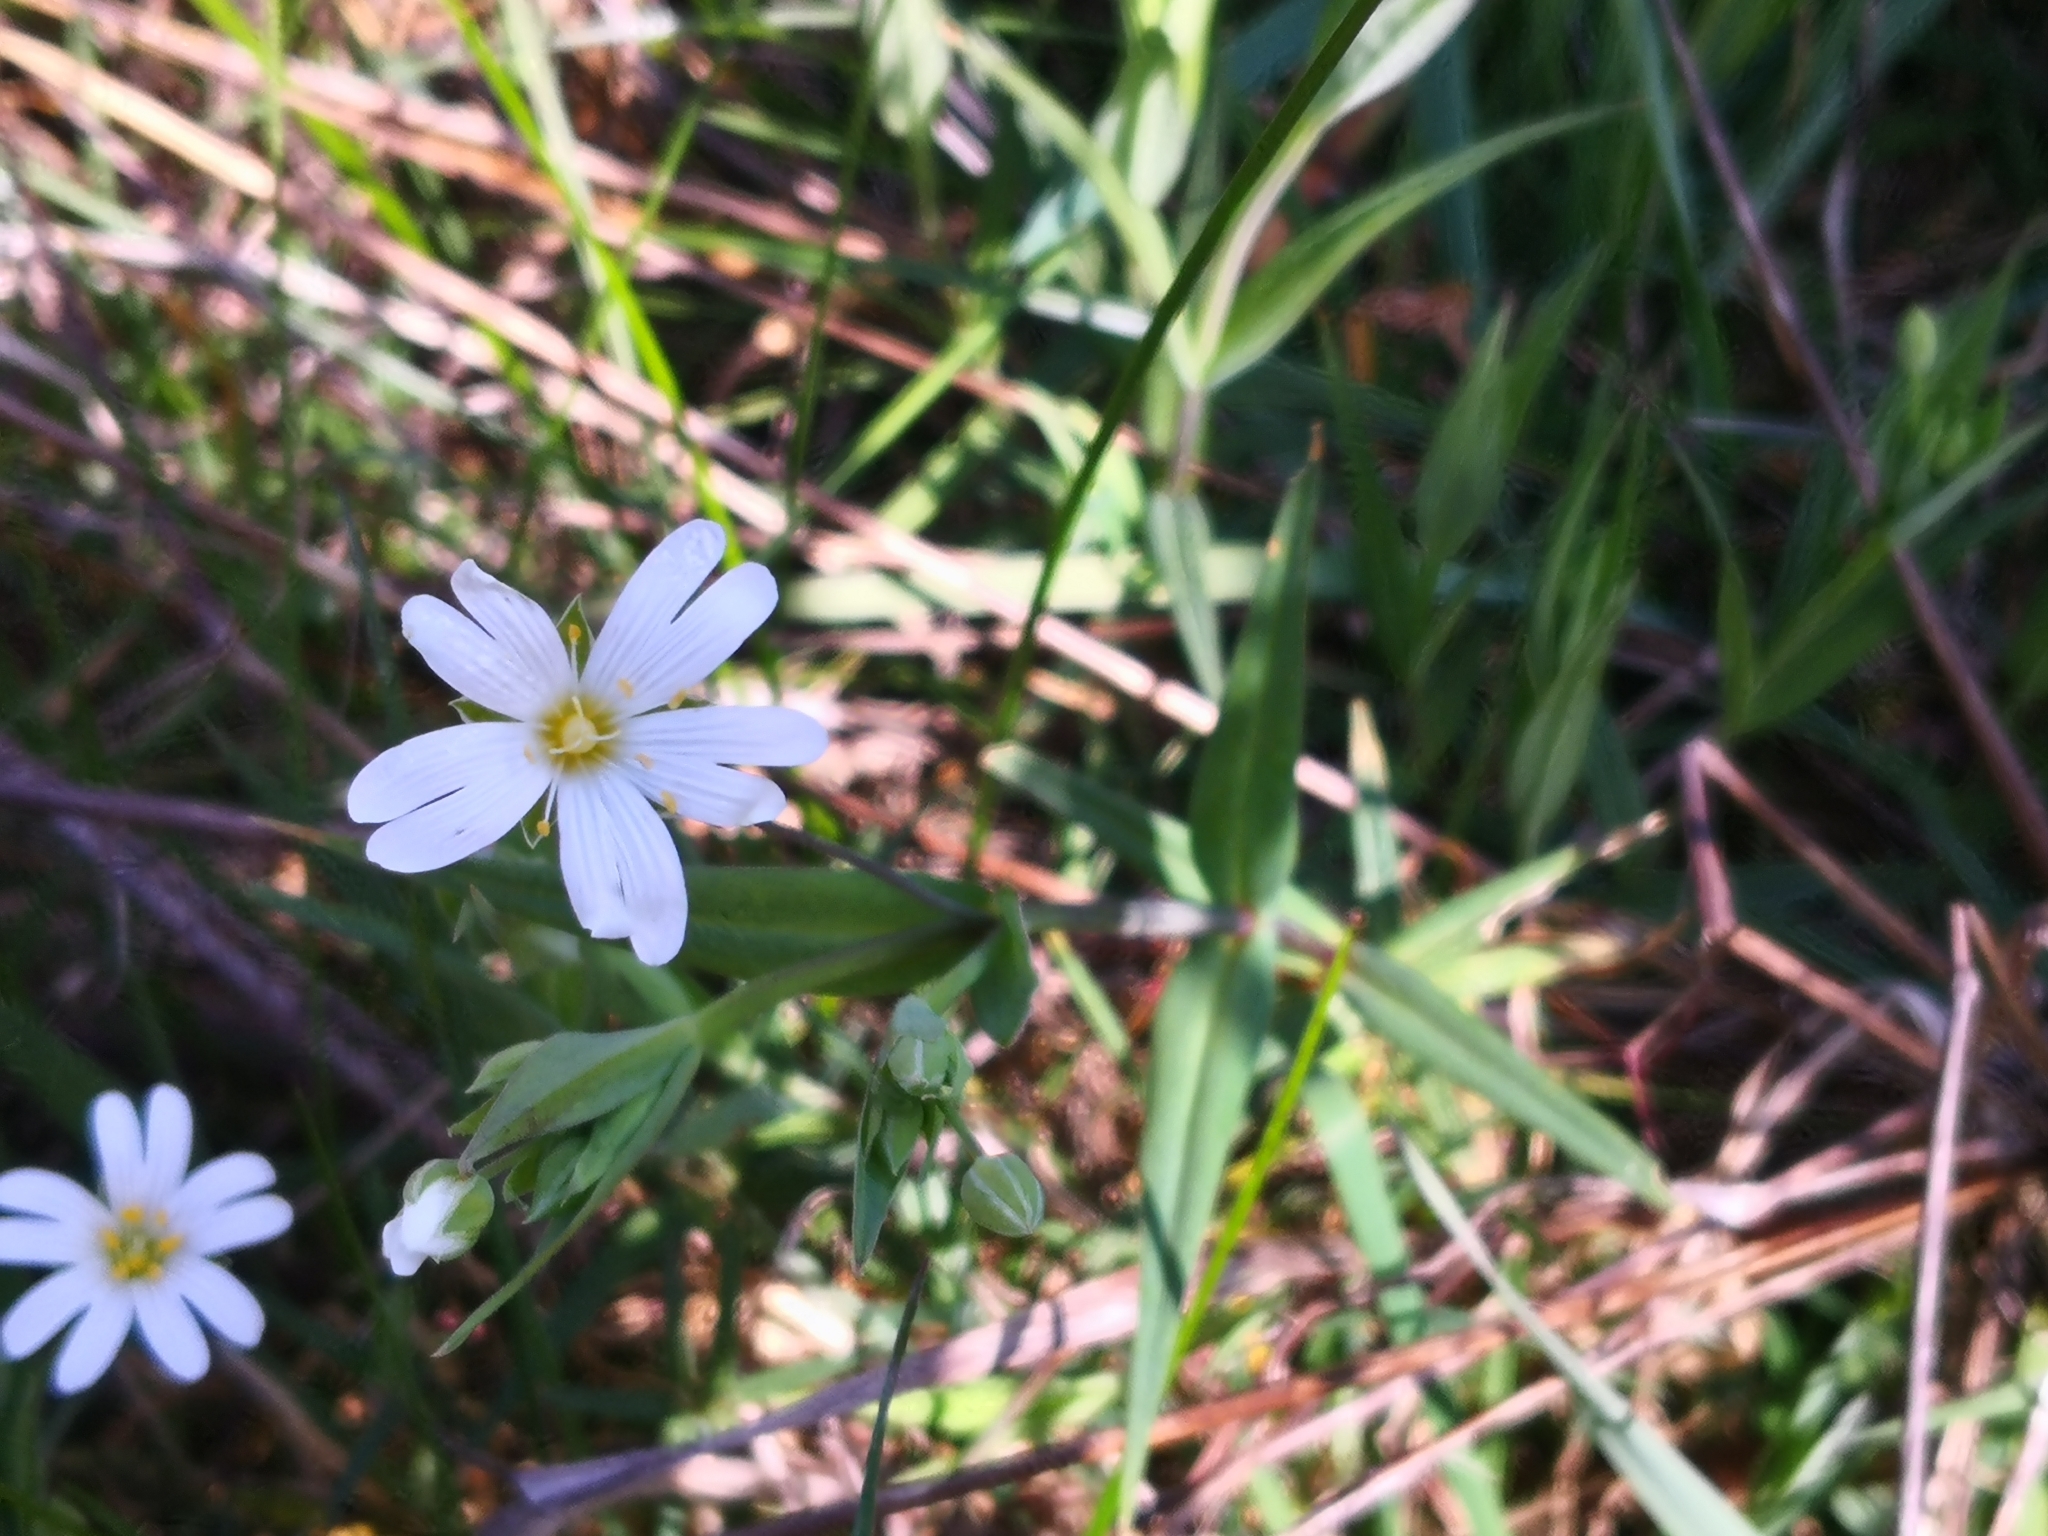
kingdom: Plantae
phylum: Tracheophyta
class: Magnoliopsida
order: Caryophyllales
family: Caryophyllaceae
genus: Rabelera
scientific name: Rabelera holostea
